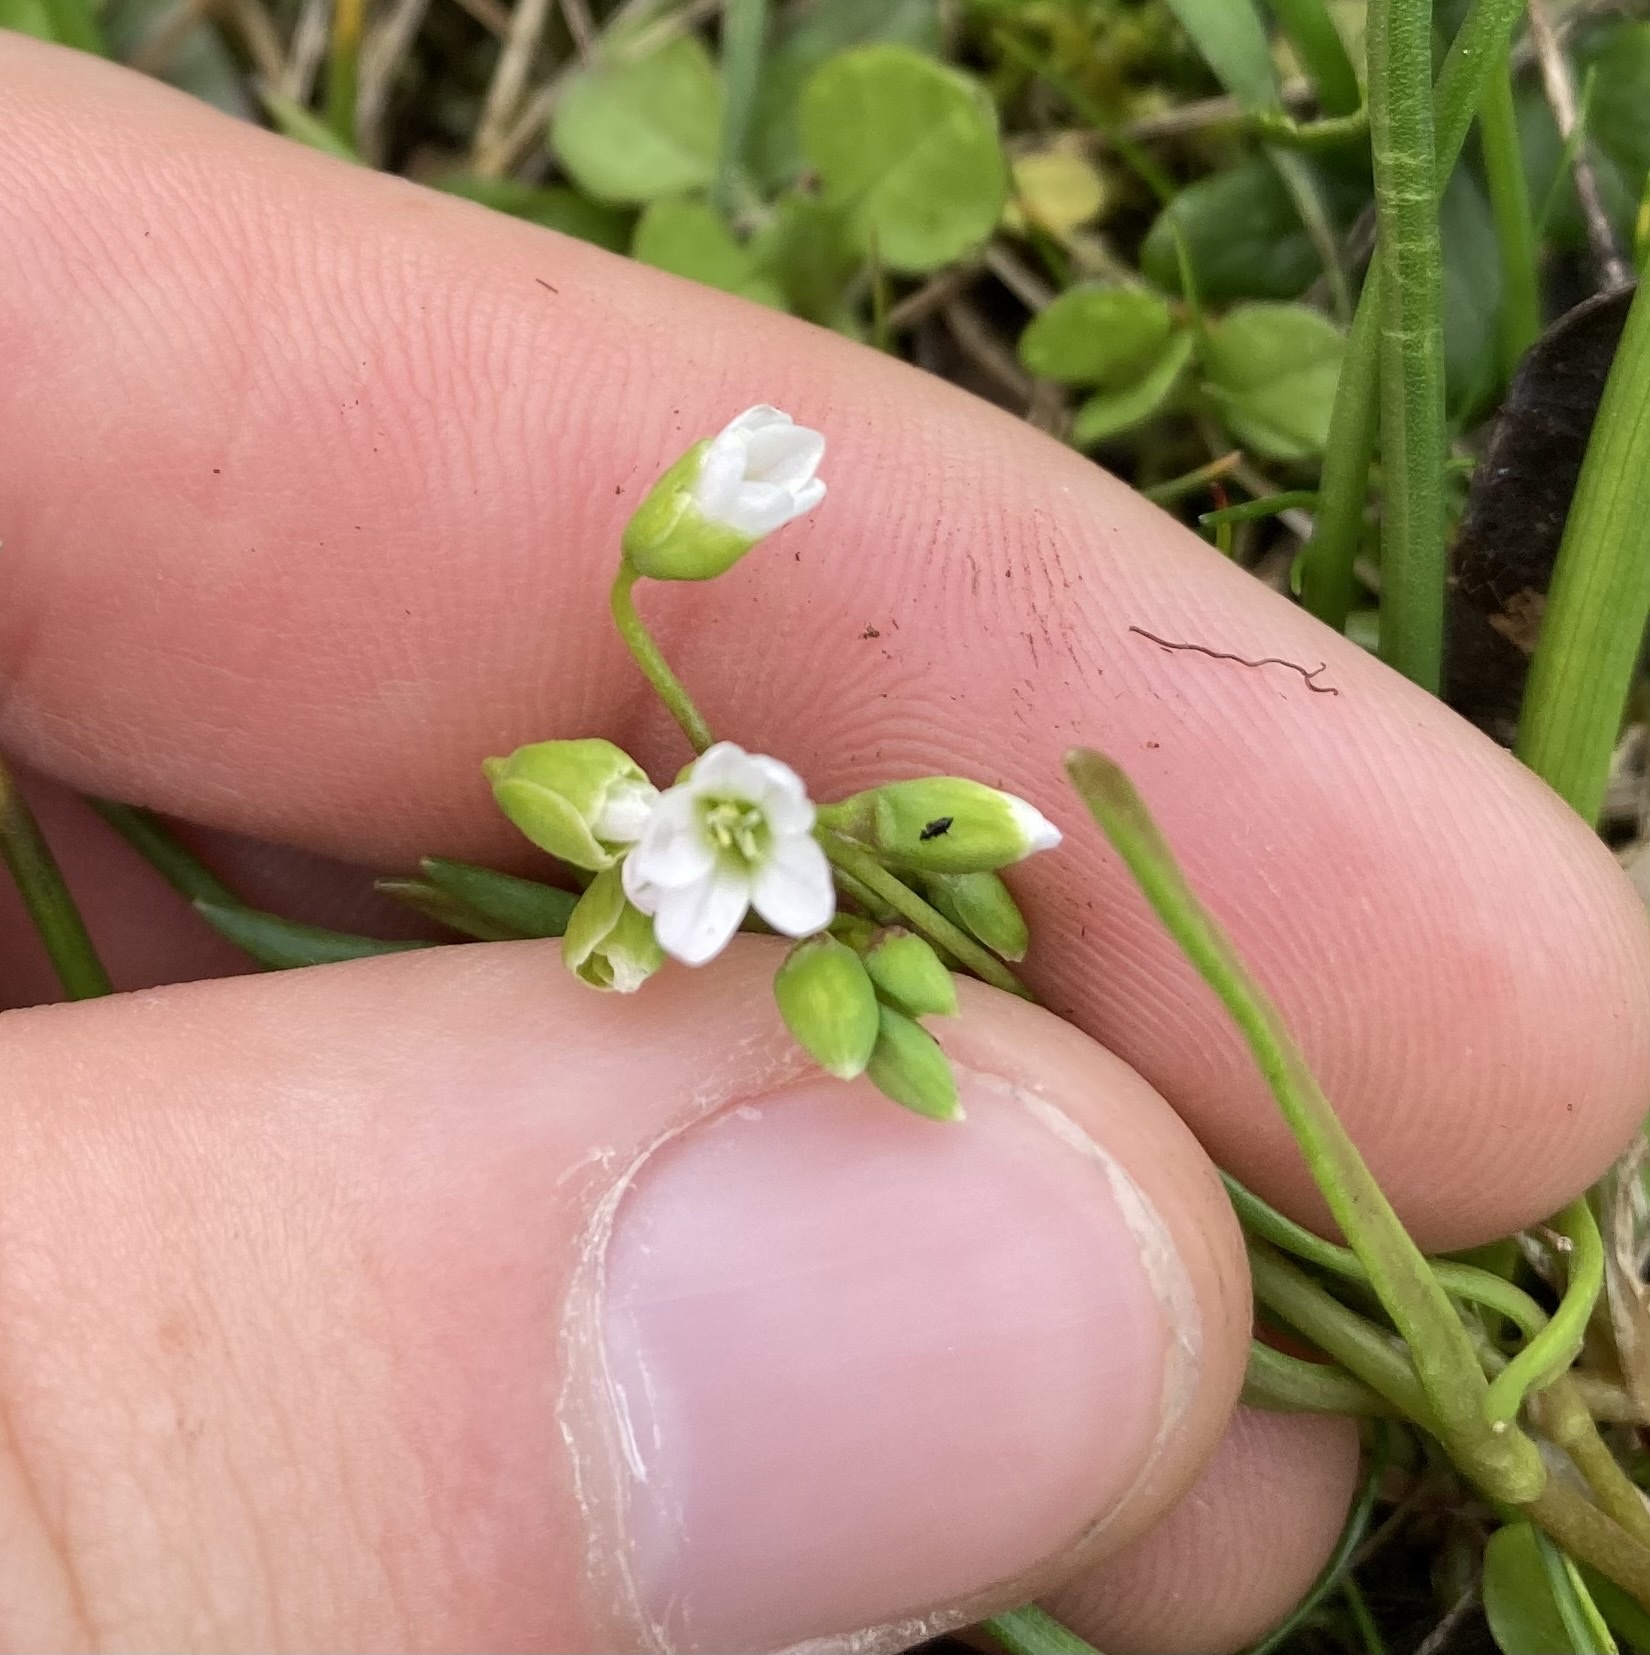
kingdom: Plantae
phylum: Tracheophyta
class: Magnoliopsida
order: Caryophyllales
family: Montiaceae
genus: Montia
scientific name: Montia linearis
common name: Narrow-leaf montia
